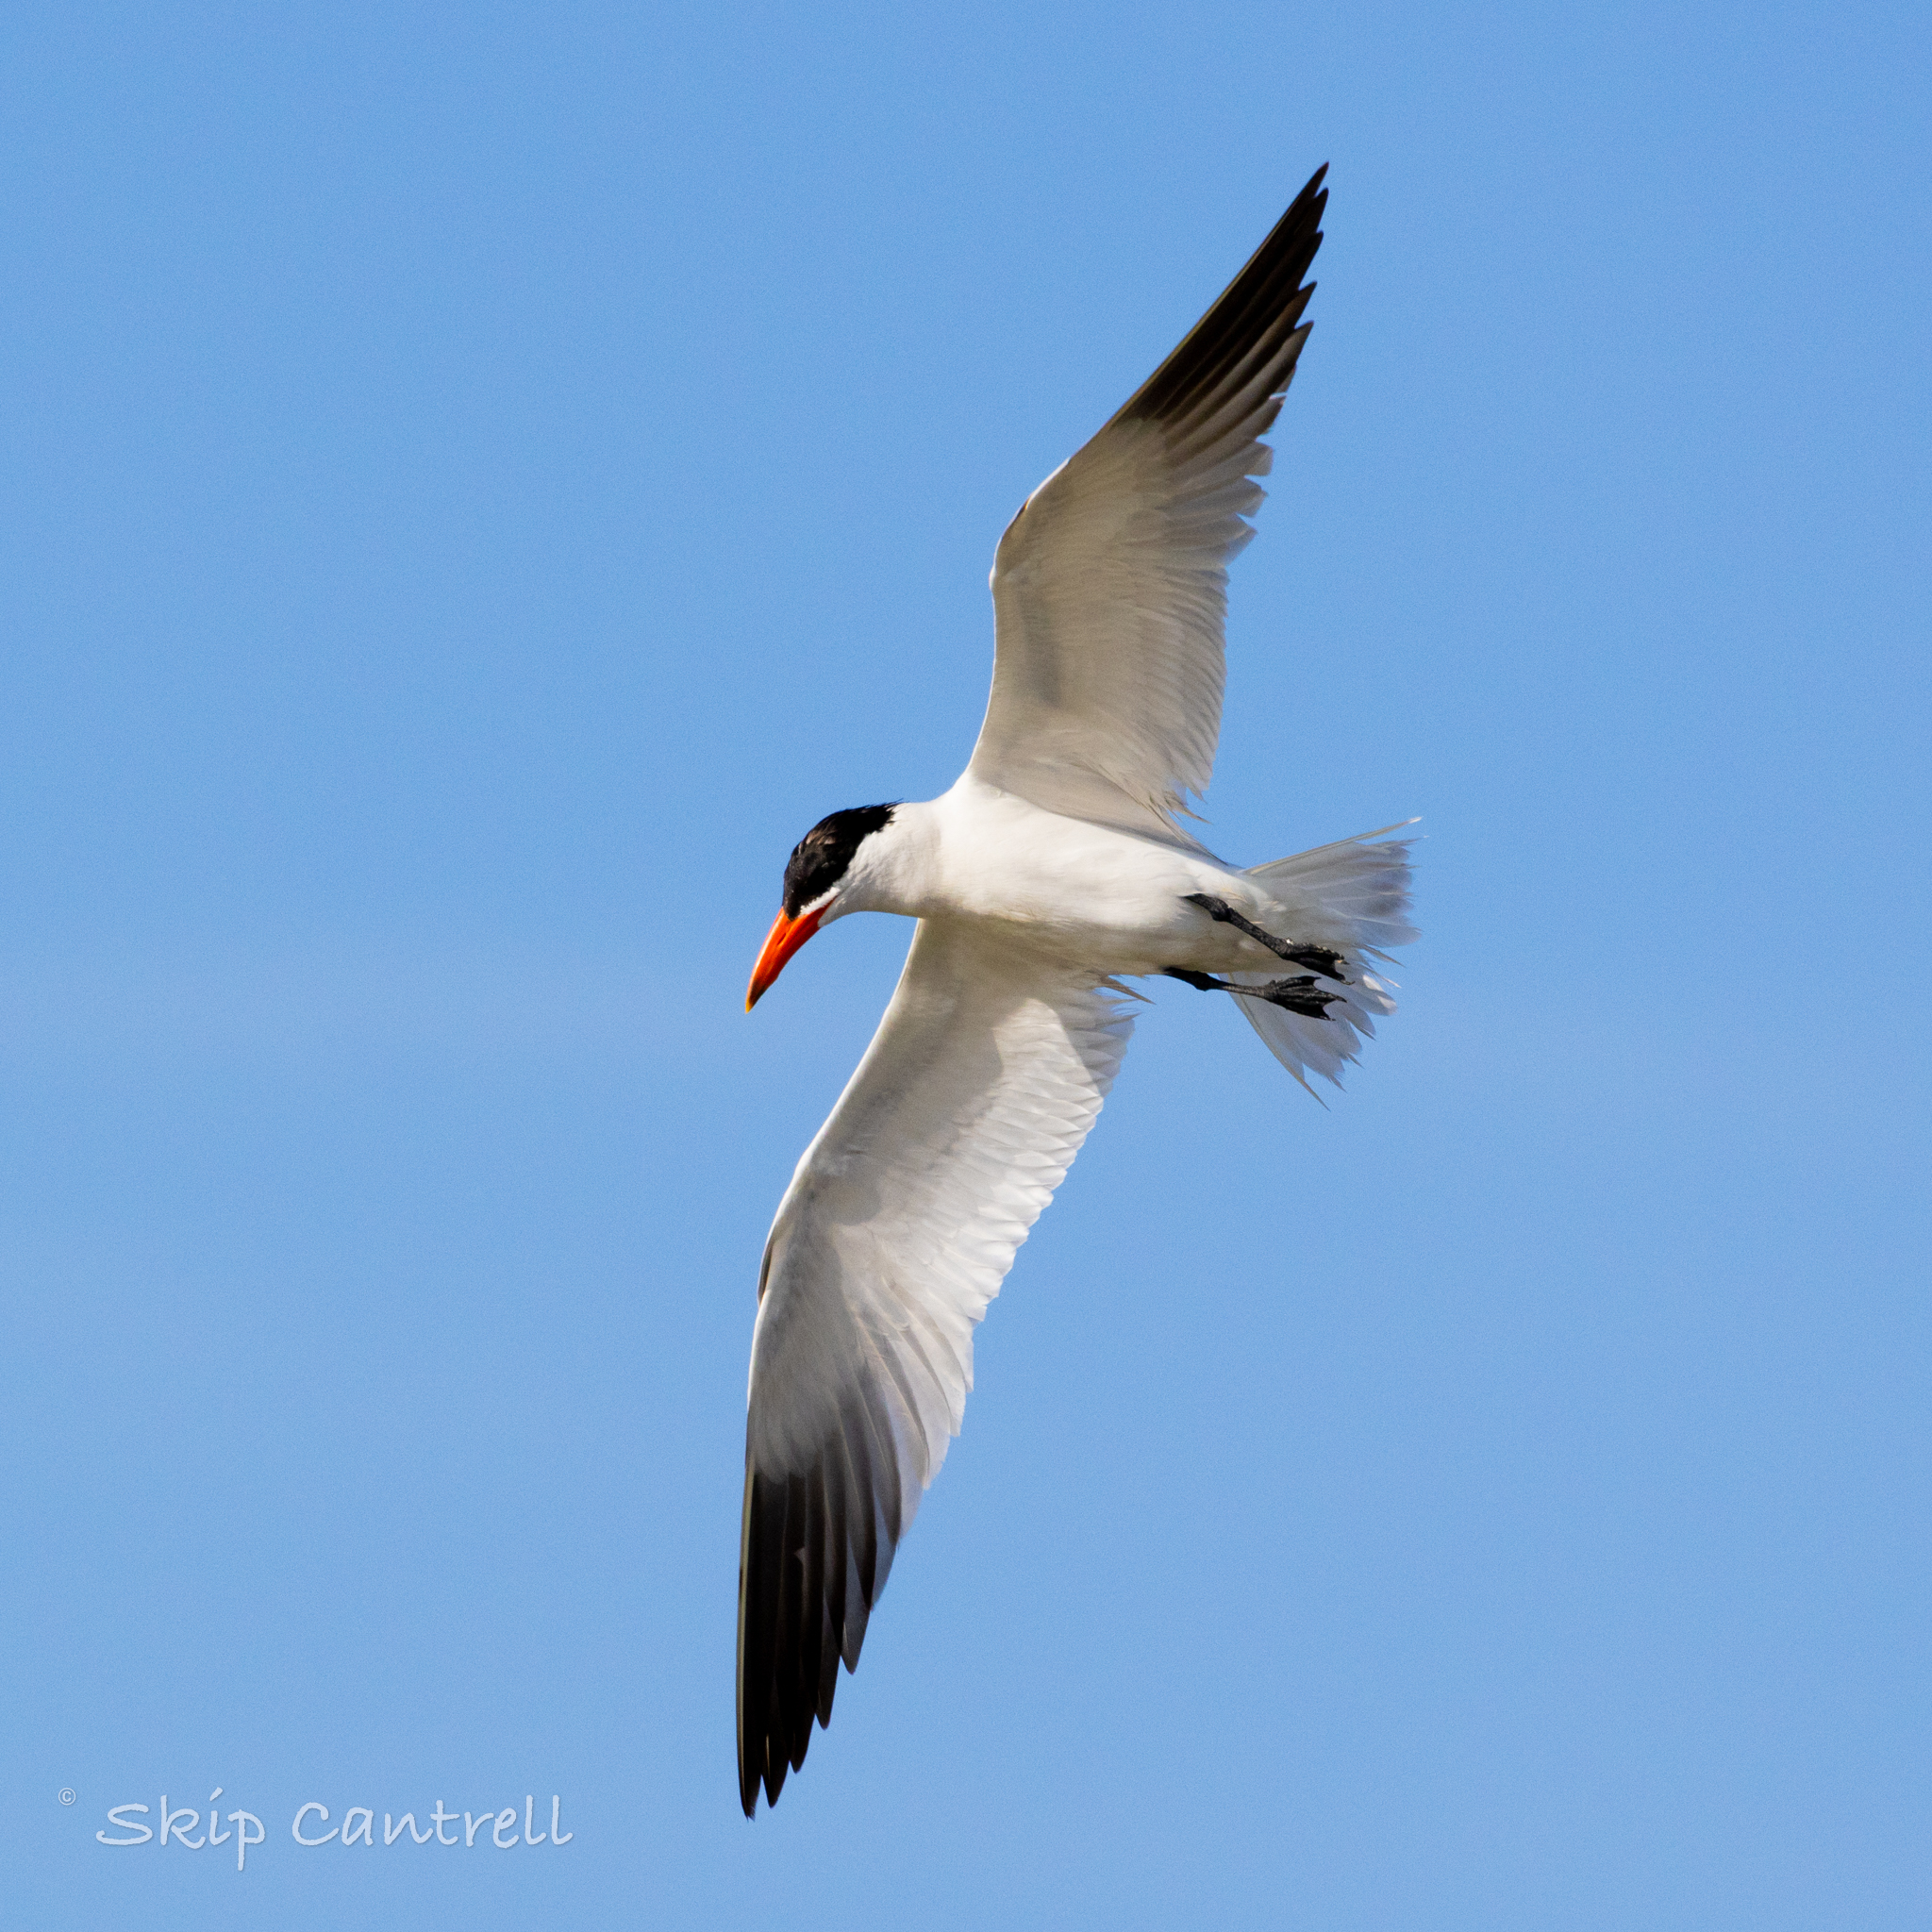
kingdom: Animalia
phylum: Chordata
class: Aves
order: Charadriiformes
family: Laridae
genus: Hydroprogne
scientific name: Hydroprogne caspia
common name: Caspian tern
